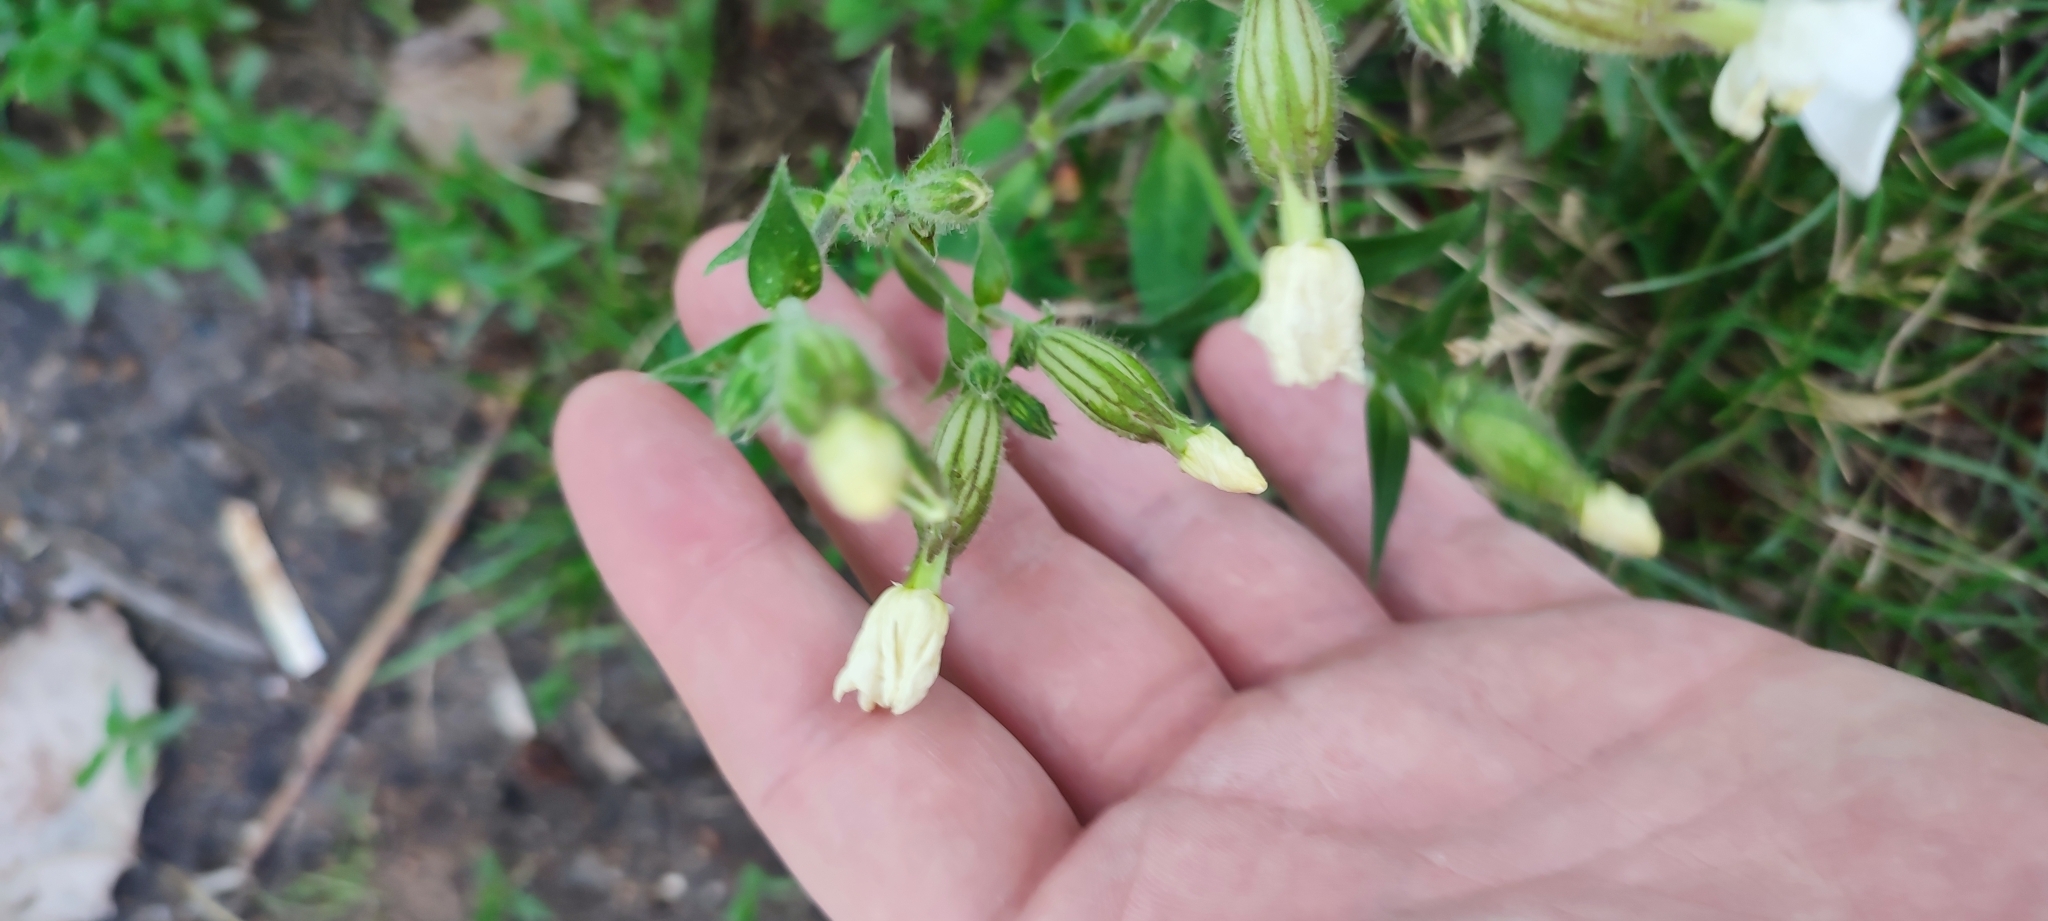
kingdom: Plantae
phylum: Tracheophyta
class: Magnoliopsida
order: Caryophyllales
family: Caryophyllaceae
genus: Silene
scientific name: Silene latifolia
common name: White campion
